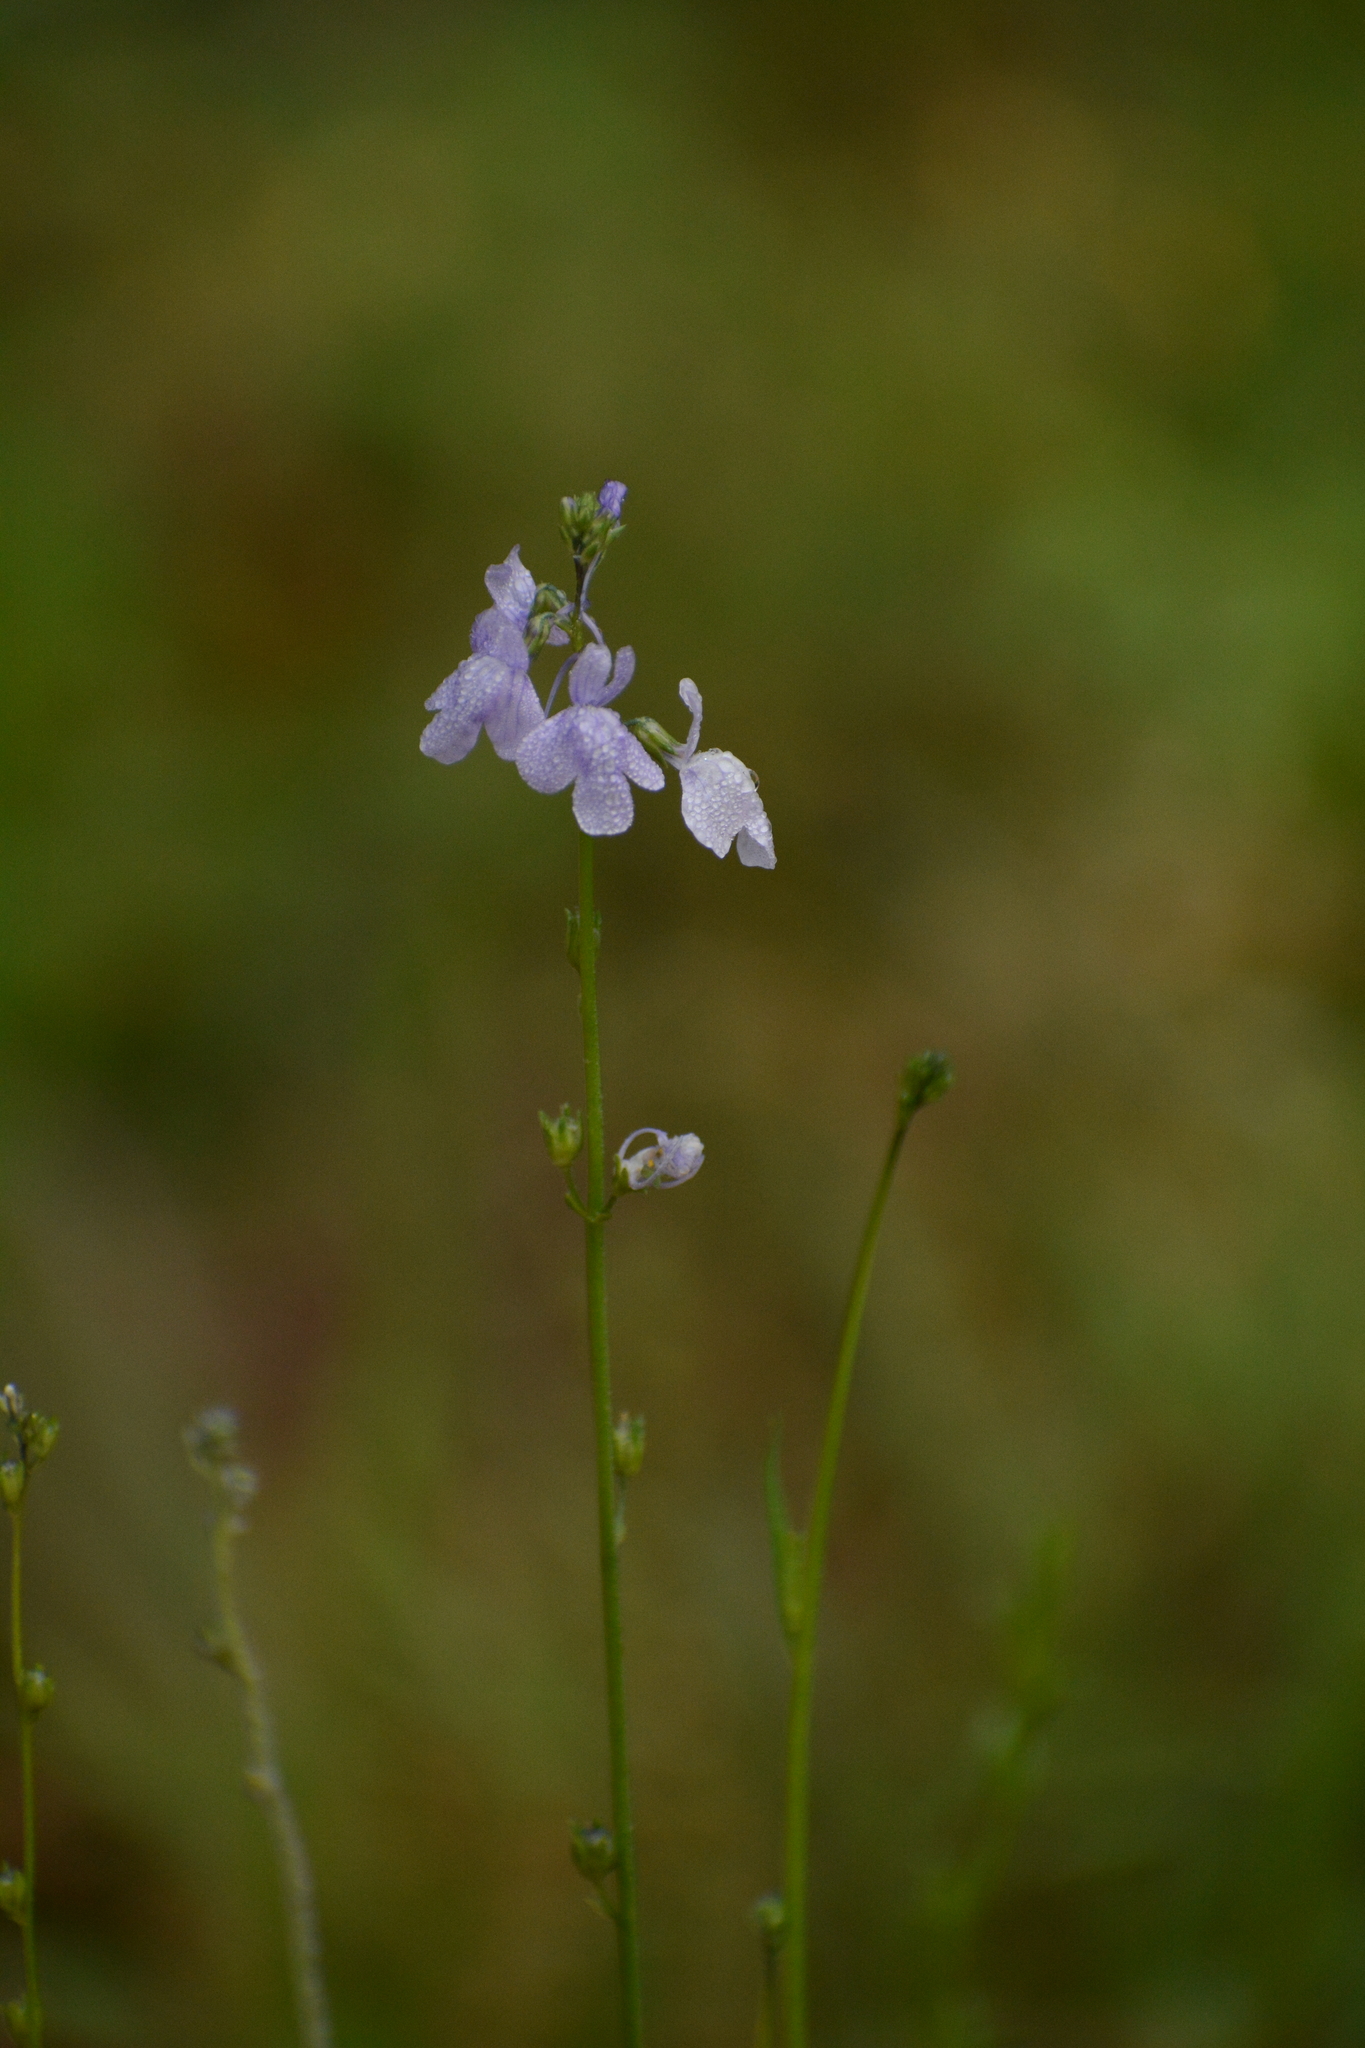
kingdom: Plantae
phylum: Tracheophyta
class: Magnoliopsida
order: Lamiales
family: Plantaginaceae
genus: Nuttallanthus
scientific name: Nuttallanthus texanus
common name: Texas toadflax
